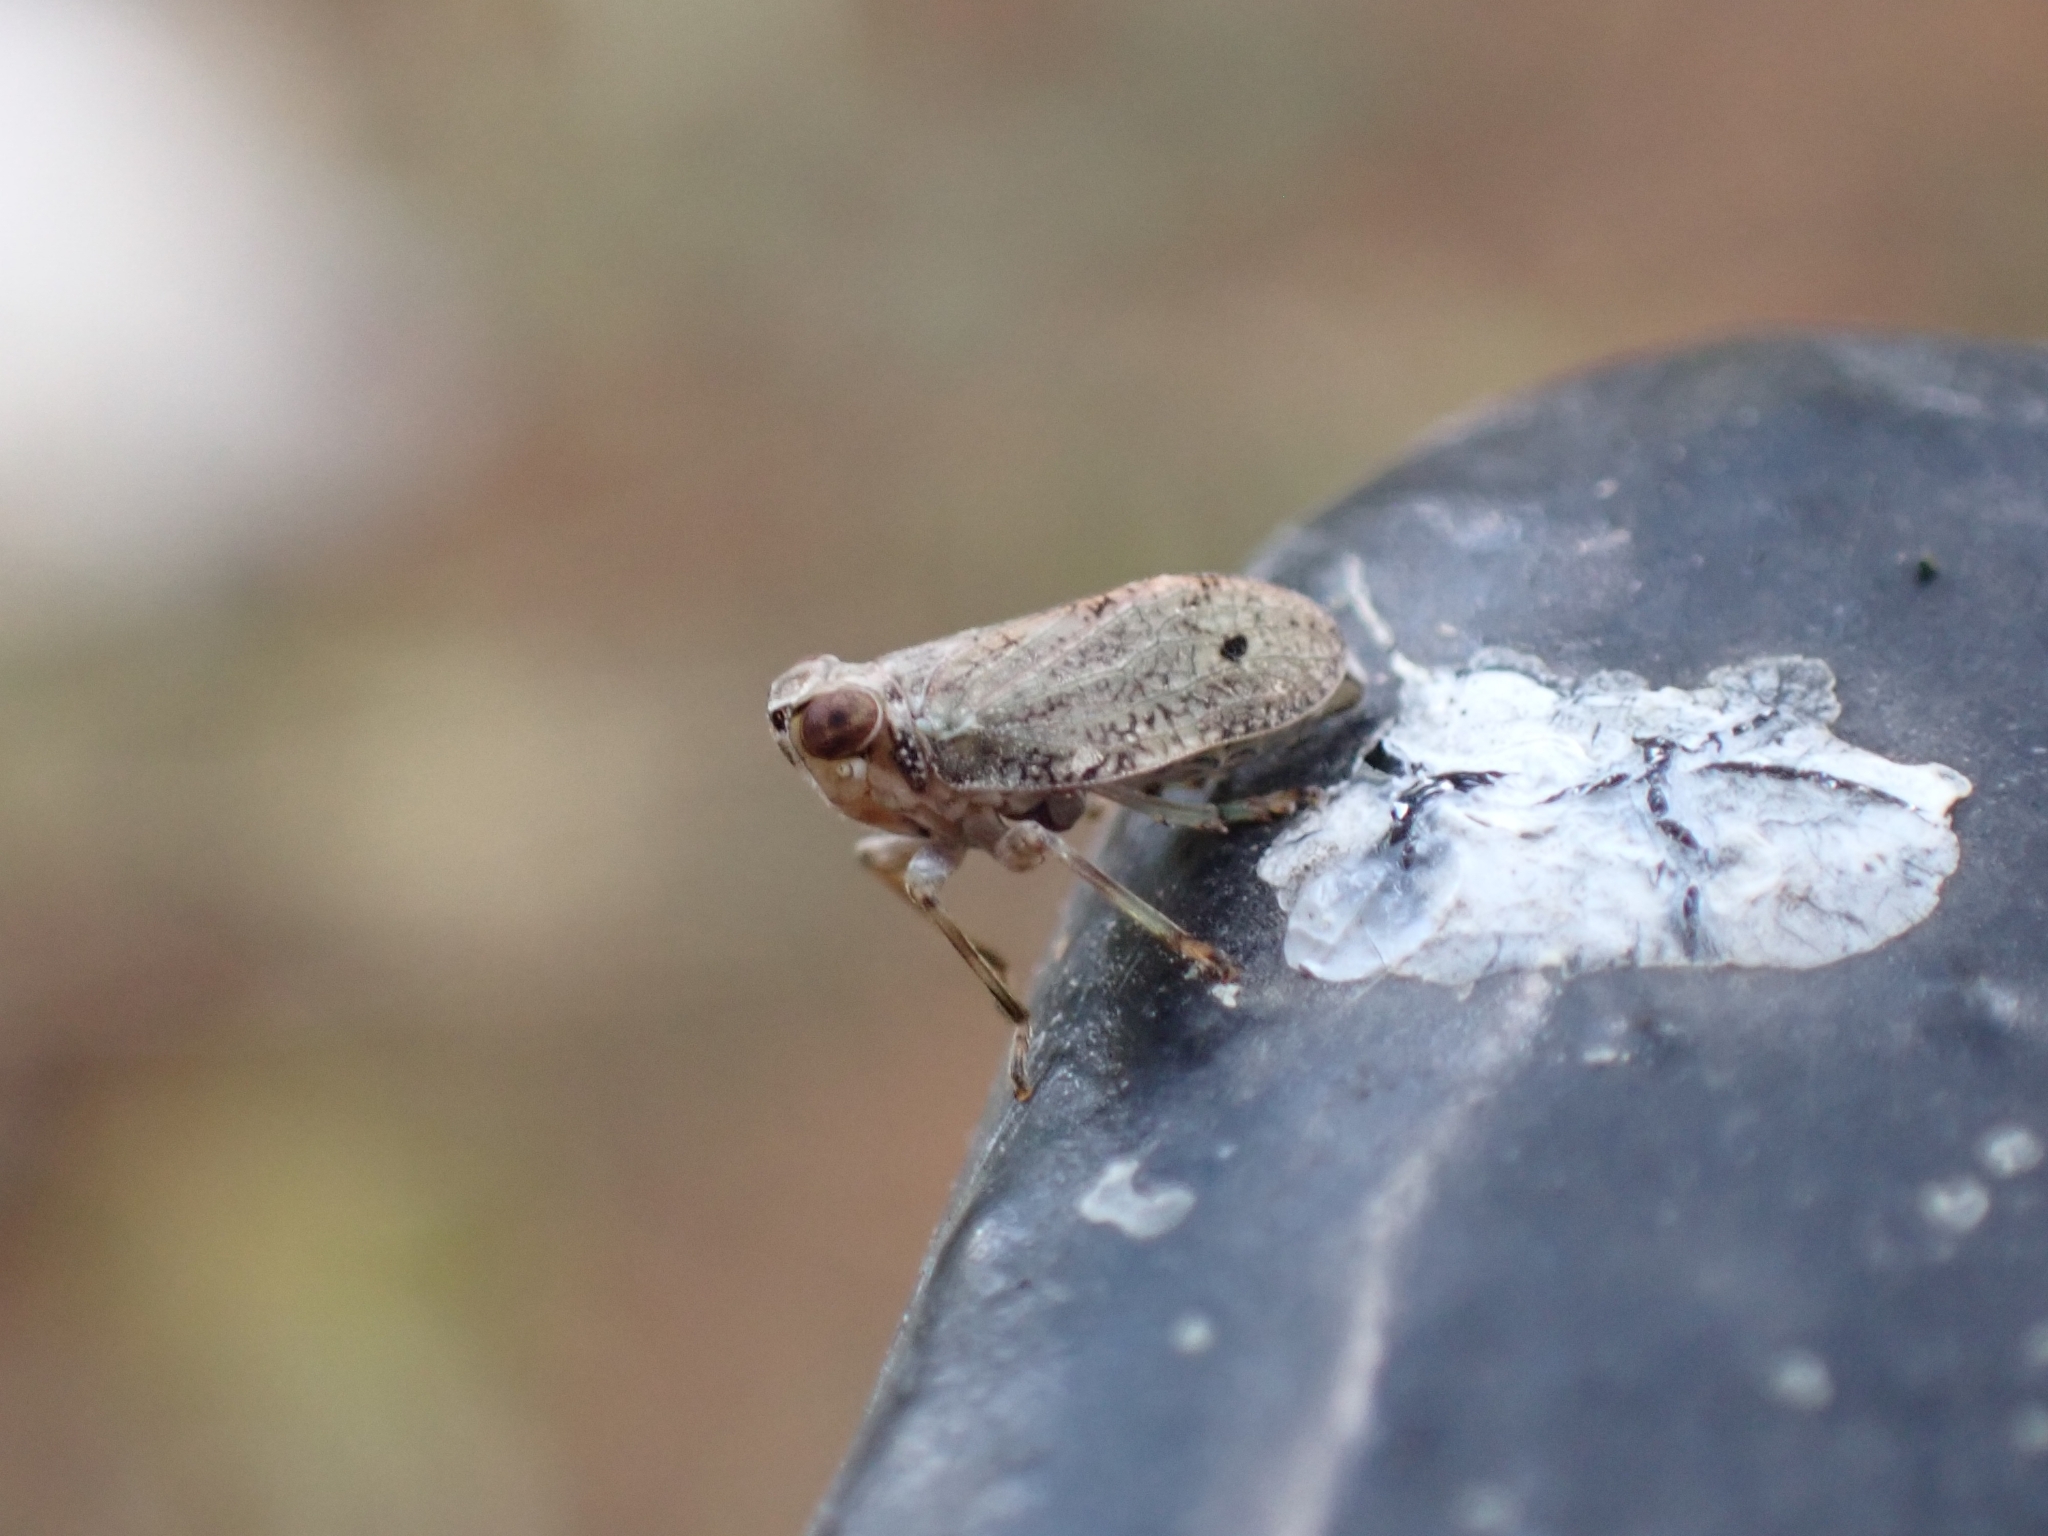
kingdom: Animalia
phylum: Arthropoda
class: Insecta
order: Hemiptera
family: Issidae
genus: Issus
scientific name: Issus coleoptratus
